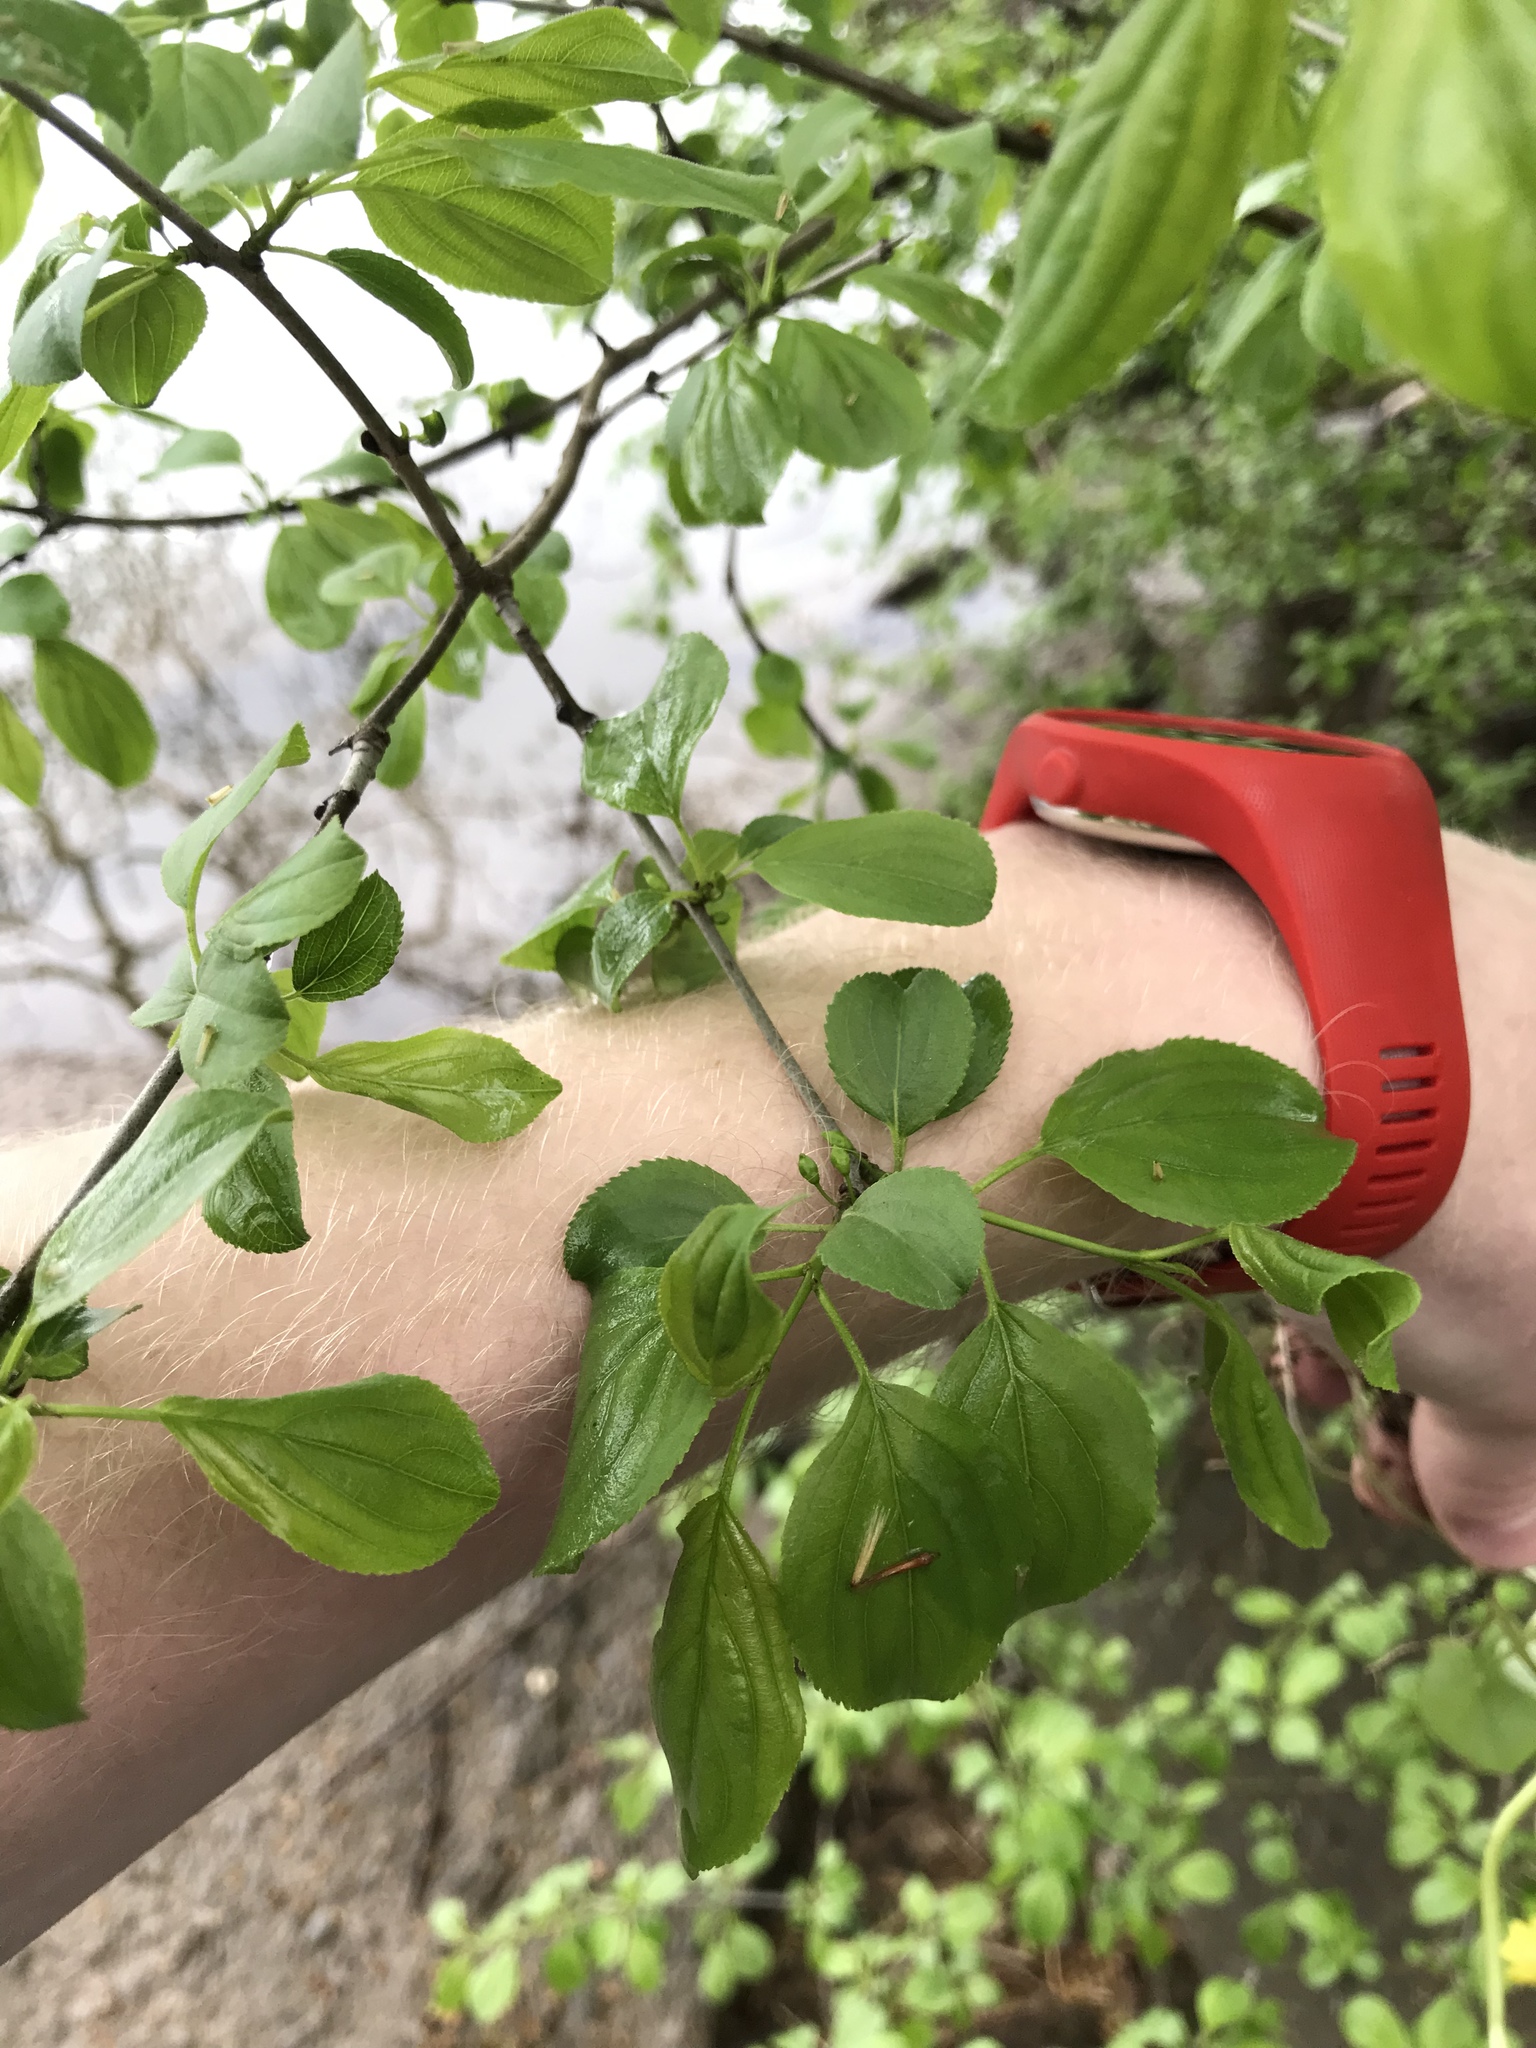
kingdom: Plantae
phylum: Tracheophyta
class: Magnoliopsida
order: Rosales
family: Rhamnaceae
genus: Rhamnus
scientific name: Rhamnus cathartica
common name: Common buckthorn
